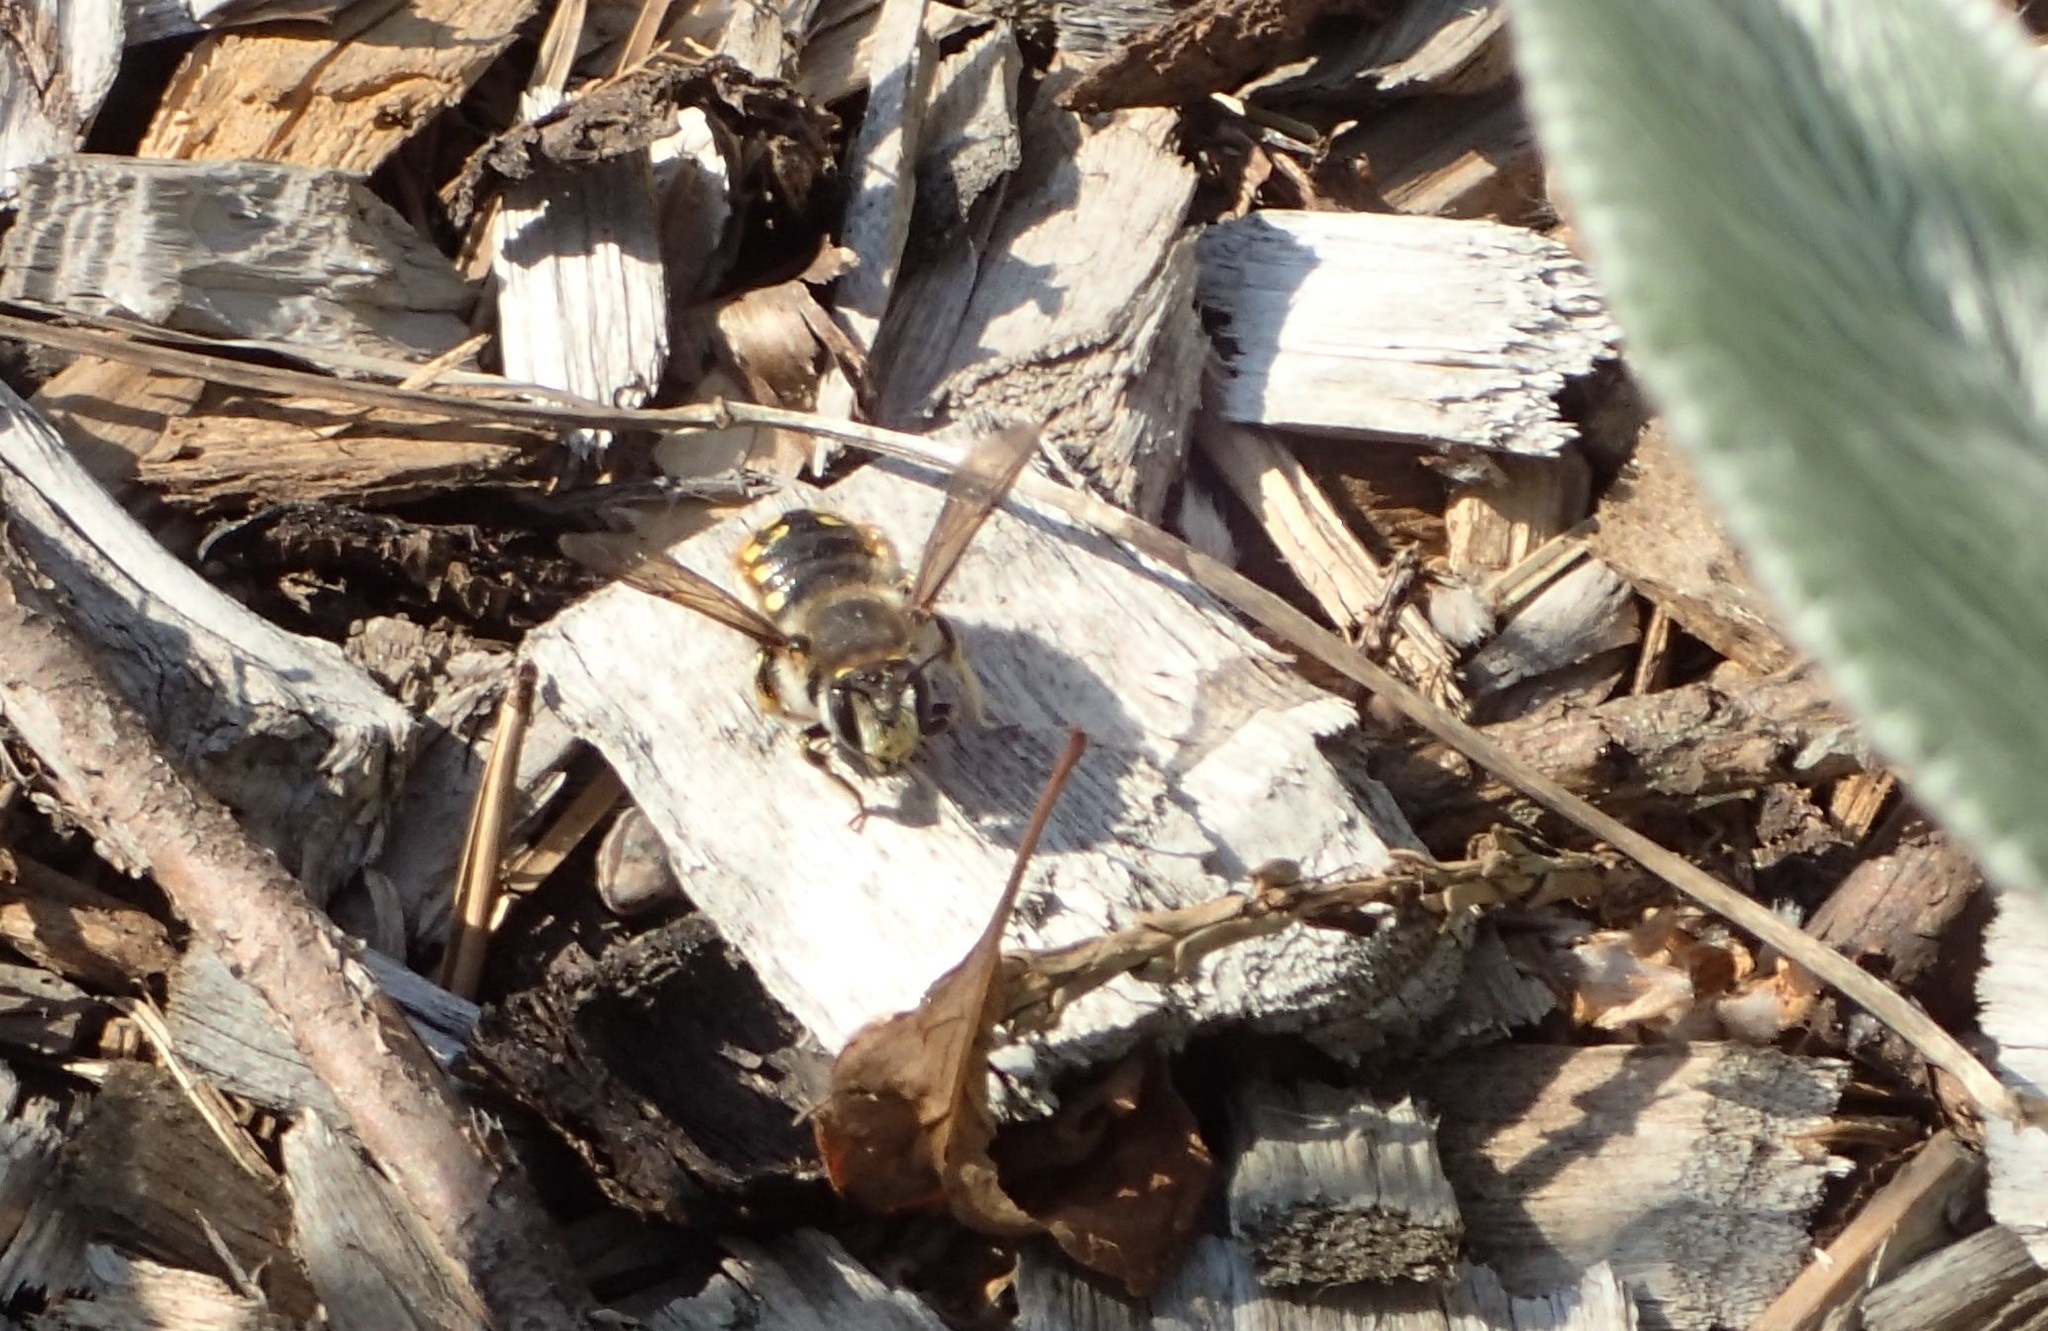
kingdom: Animalia
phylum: Arthropoda
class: Insecta
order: Hymenoptera
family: Megachilidae
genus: Anthidium
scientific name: Anthidium manicatum
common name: Wool carder bee
